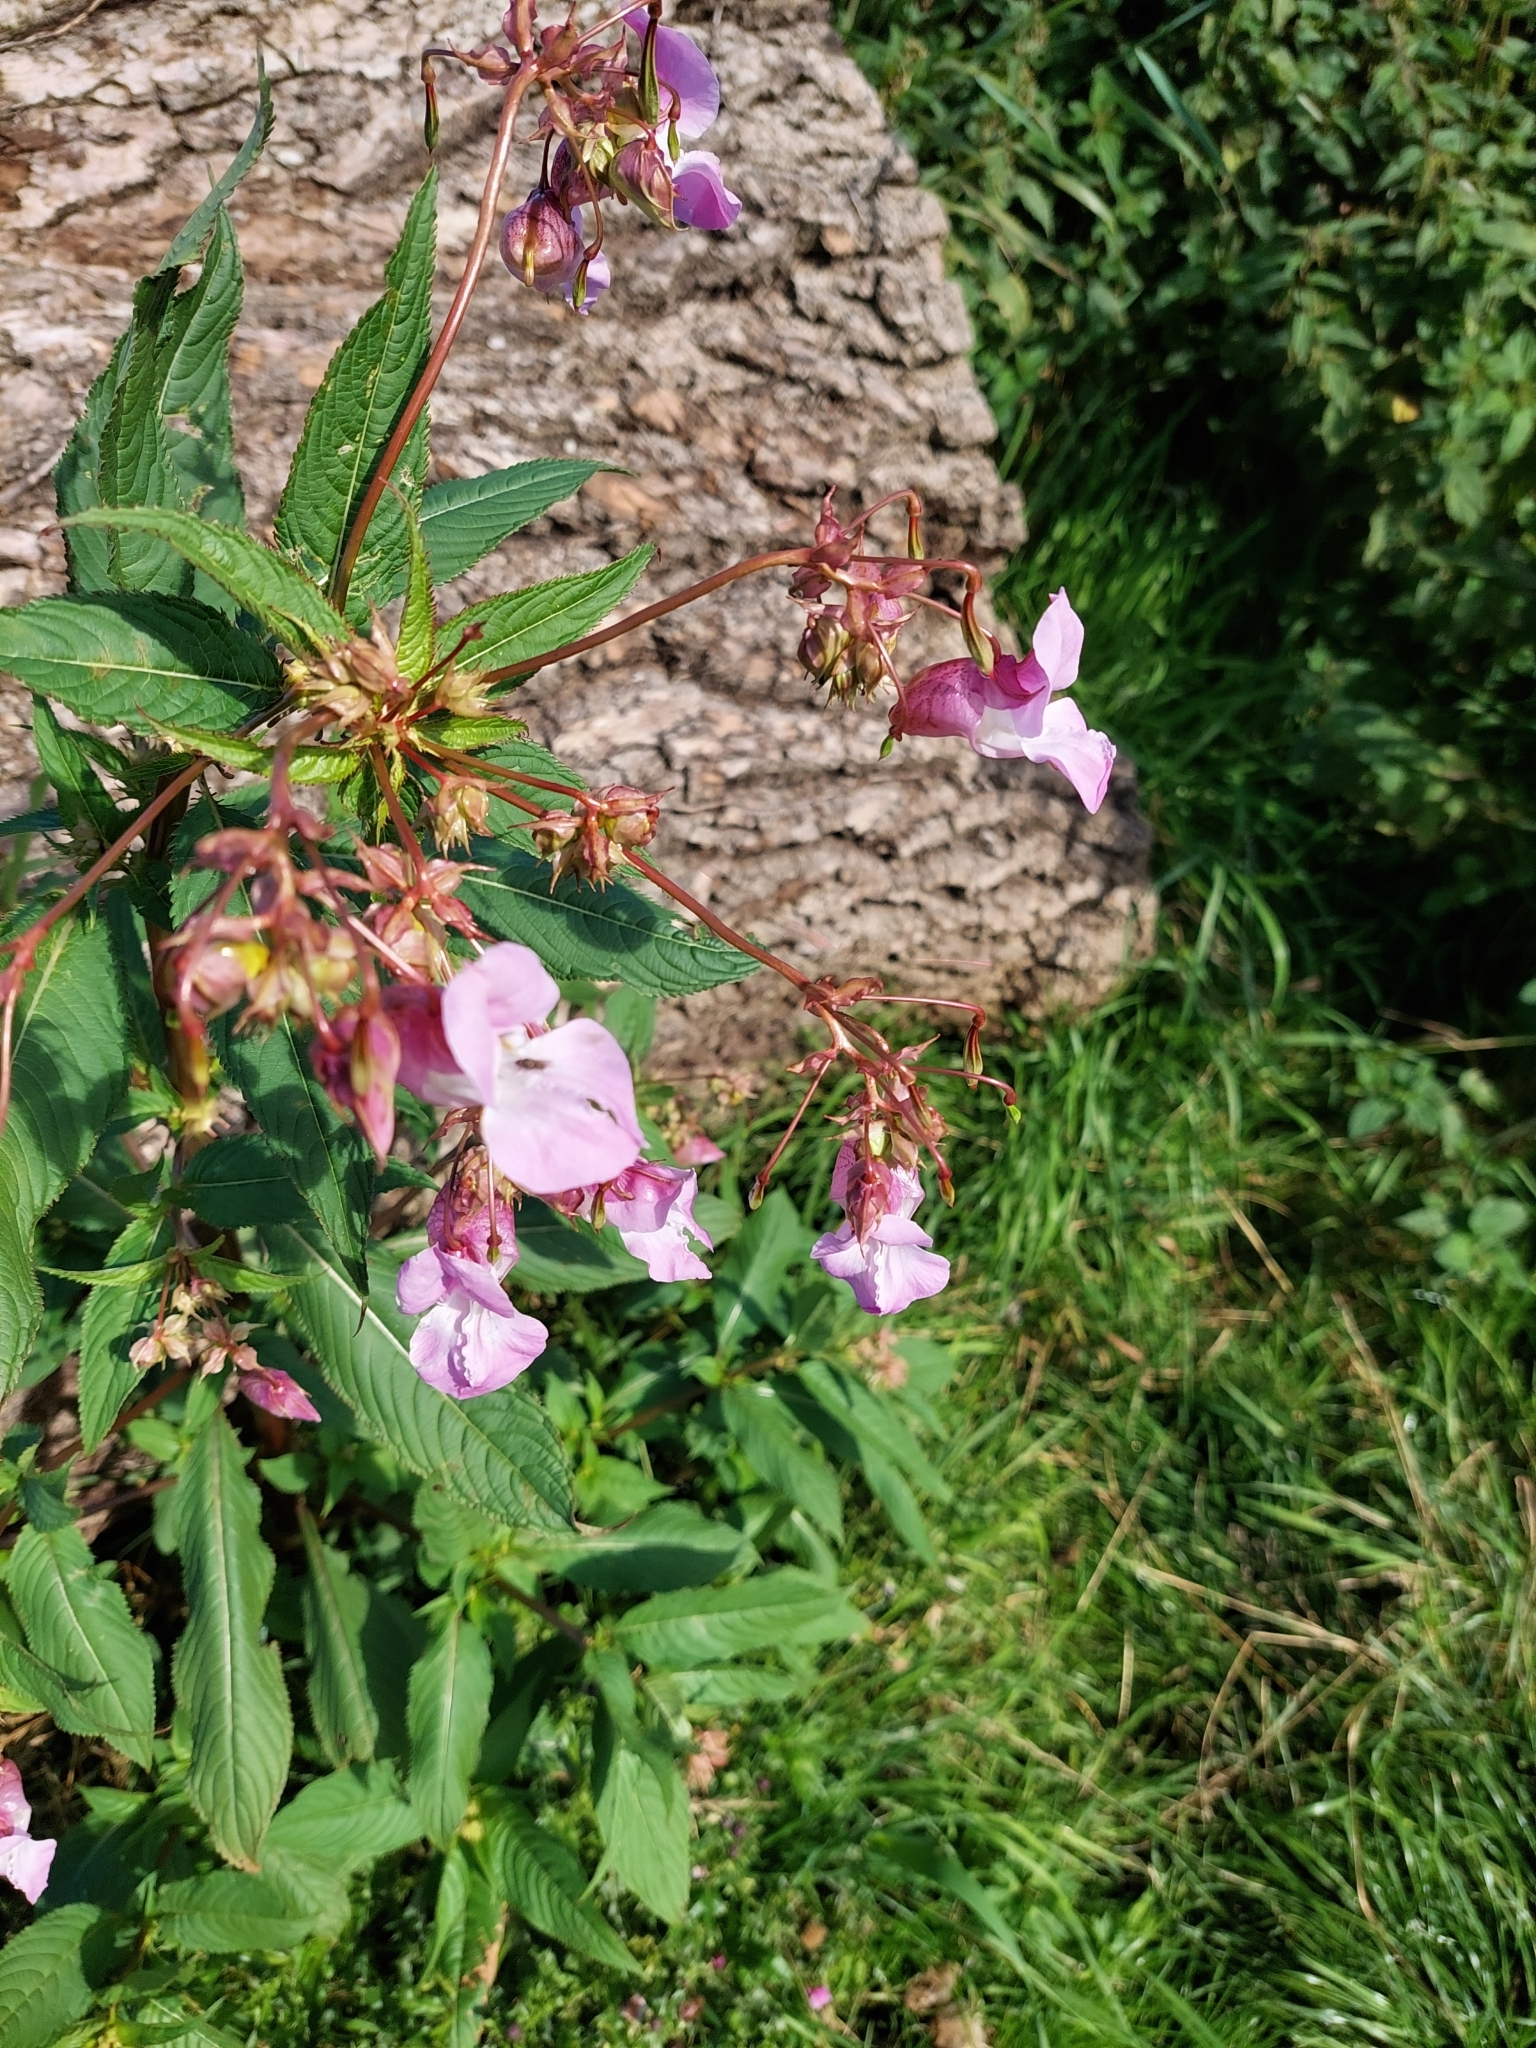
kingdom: Plantae
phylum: Tracheophyta
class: Magnoliopsida
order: Ericales
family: Balsaminaceae
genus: Impatiens
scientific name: Impatiens glandulifera
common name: Himalayan balsam
